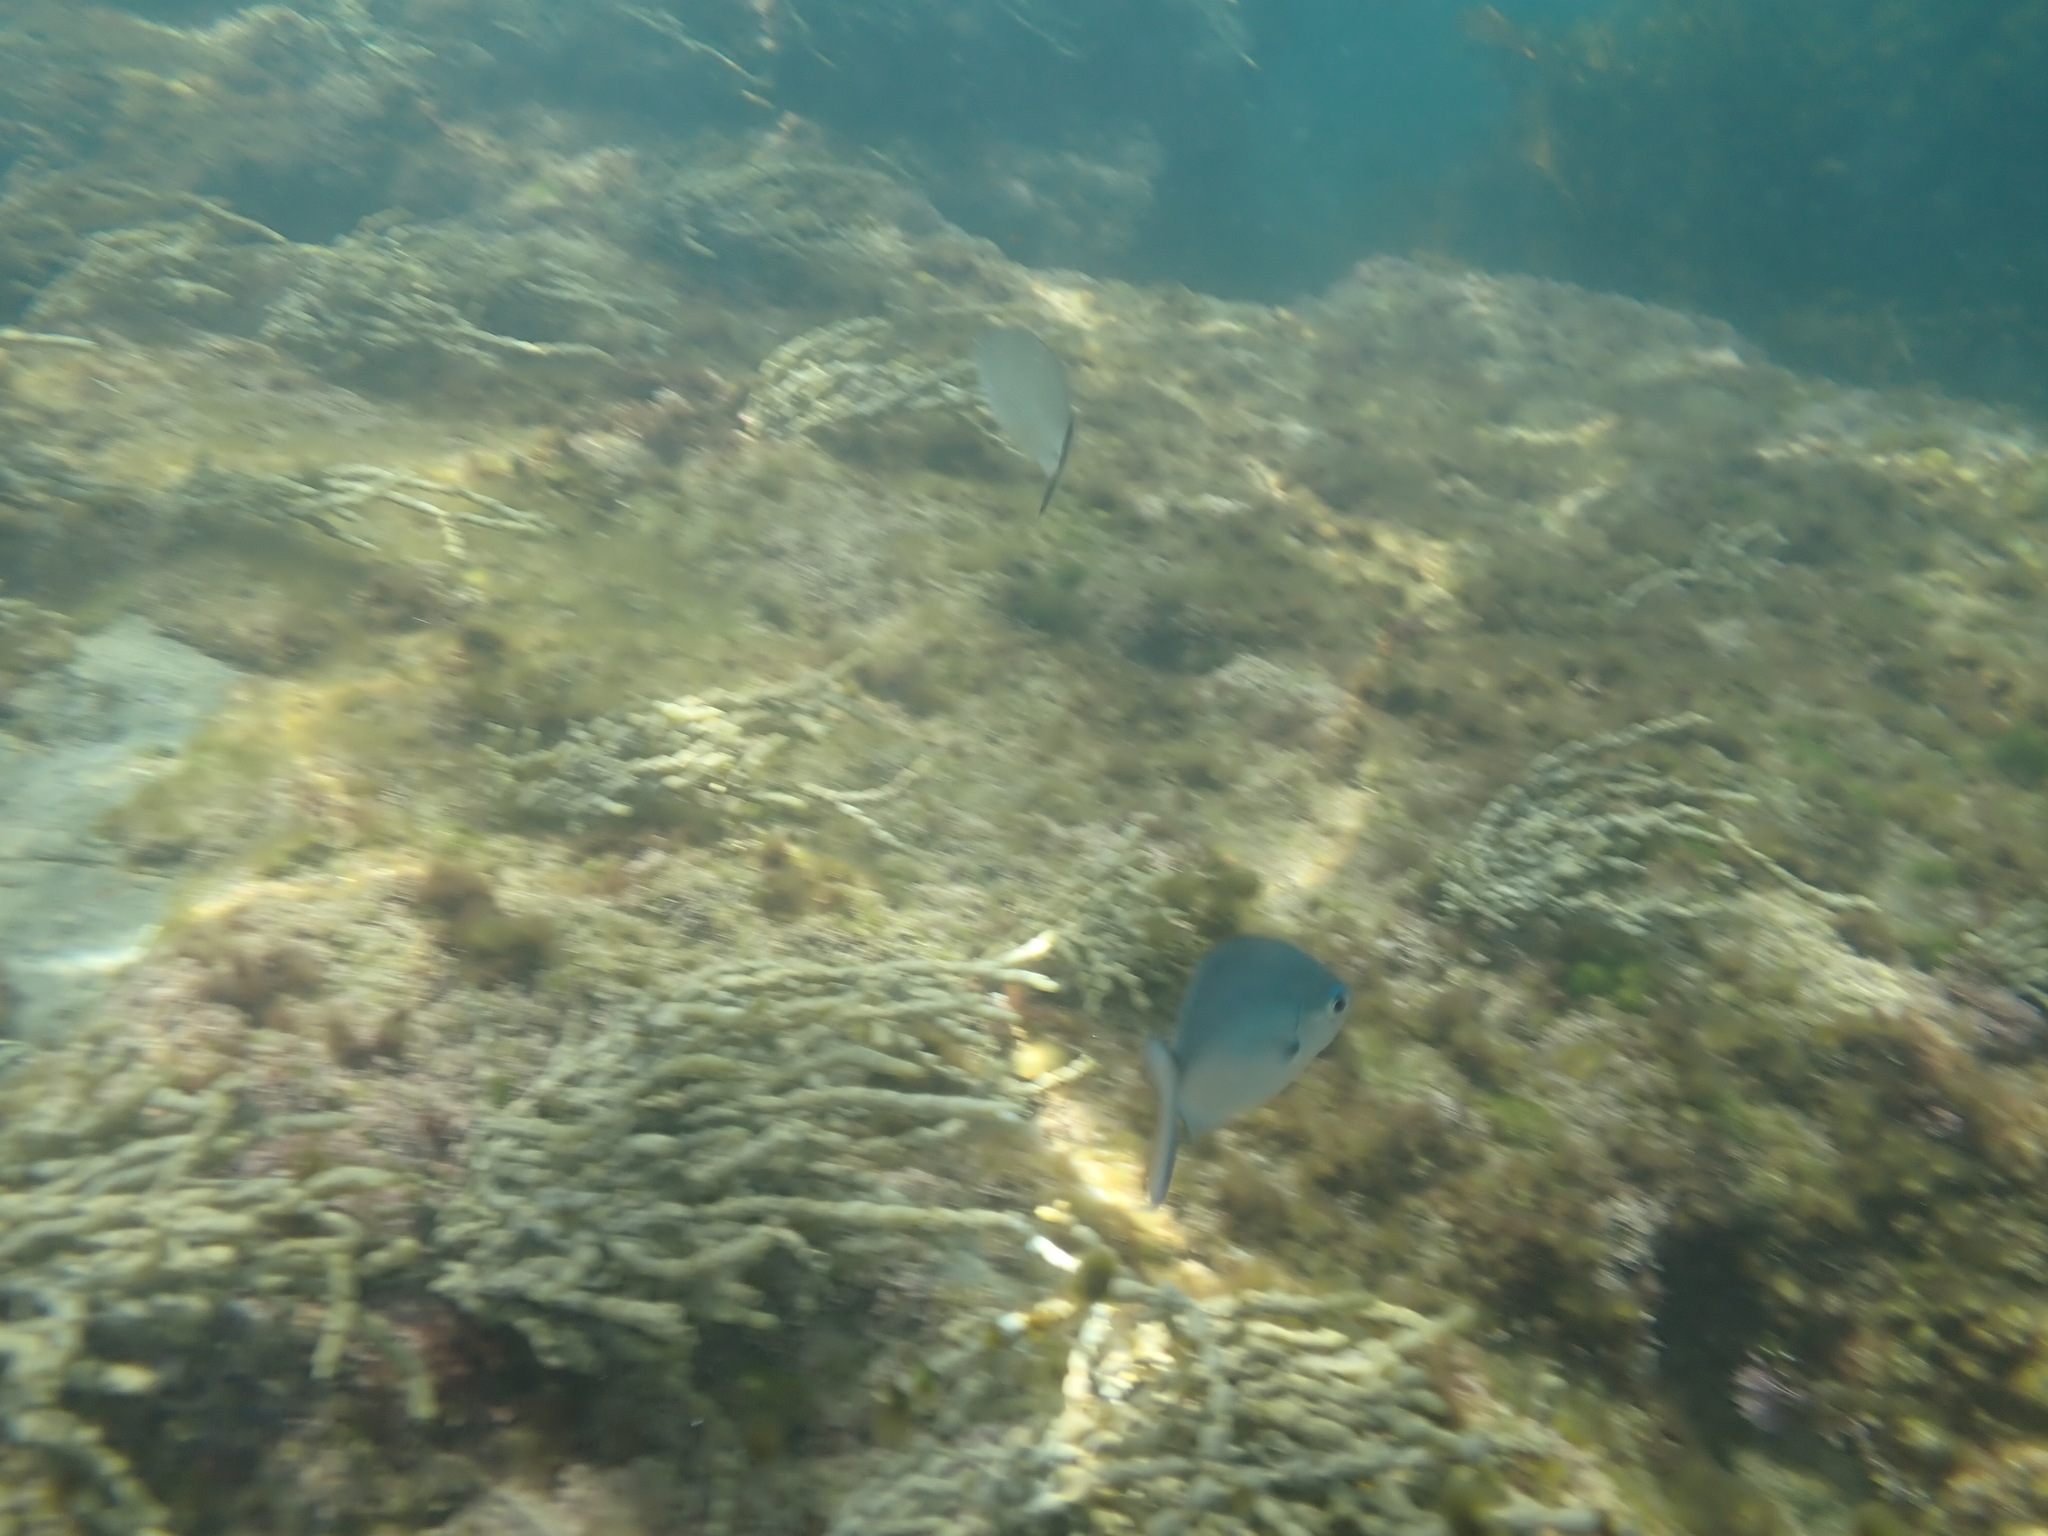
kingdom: Animalia
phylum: Chordata
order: Perciformes
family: Kyphosidae
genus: Scorpis
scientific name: Scorpis lineolata
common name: Sweep
